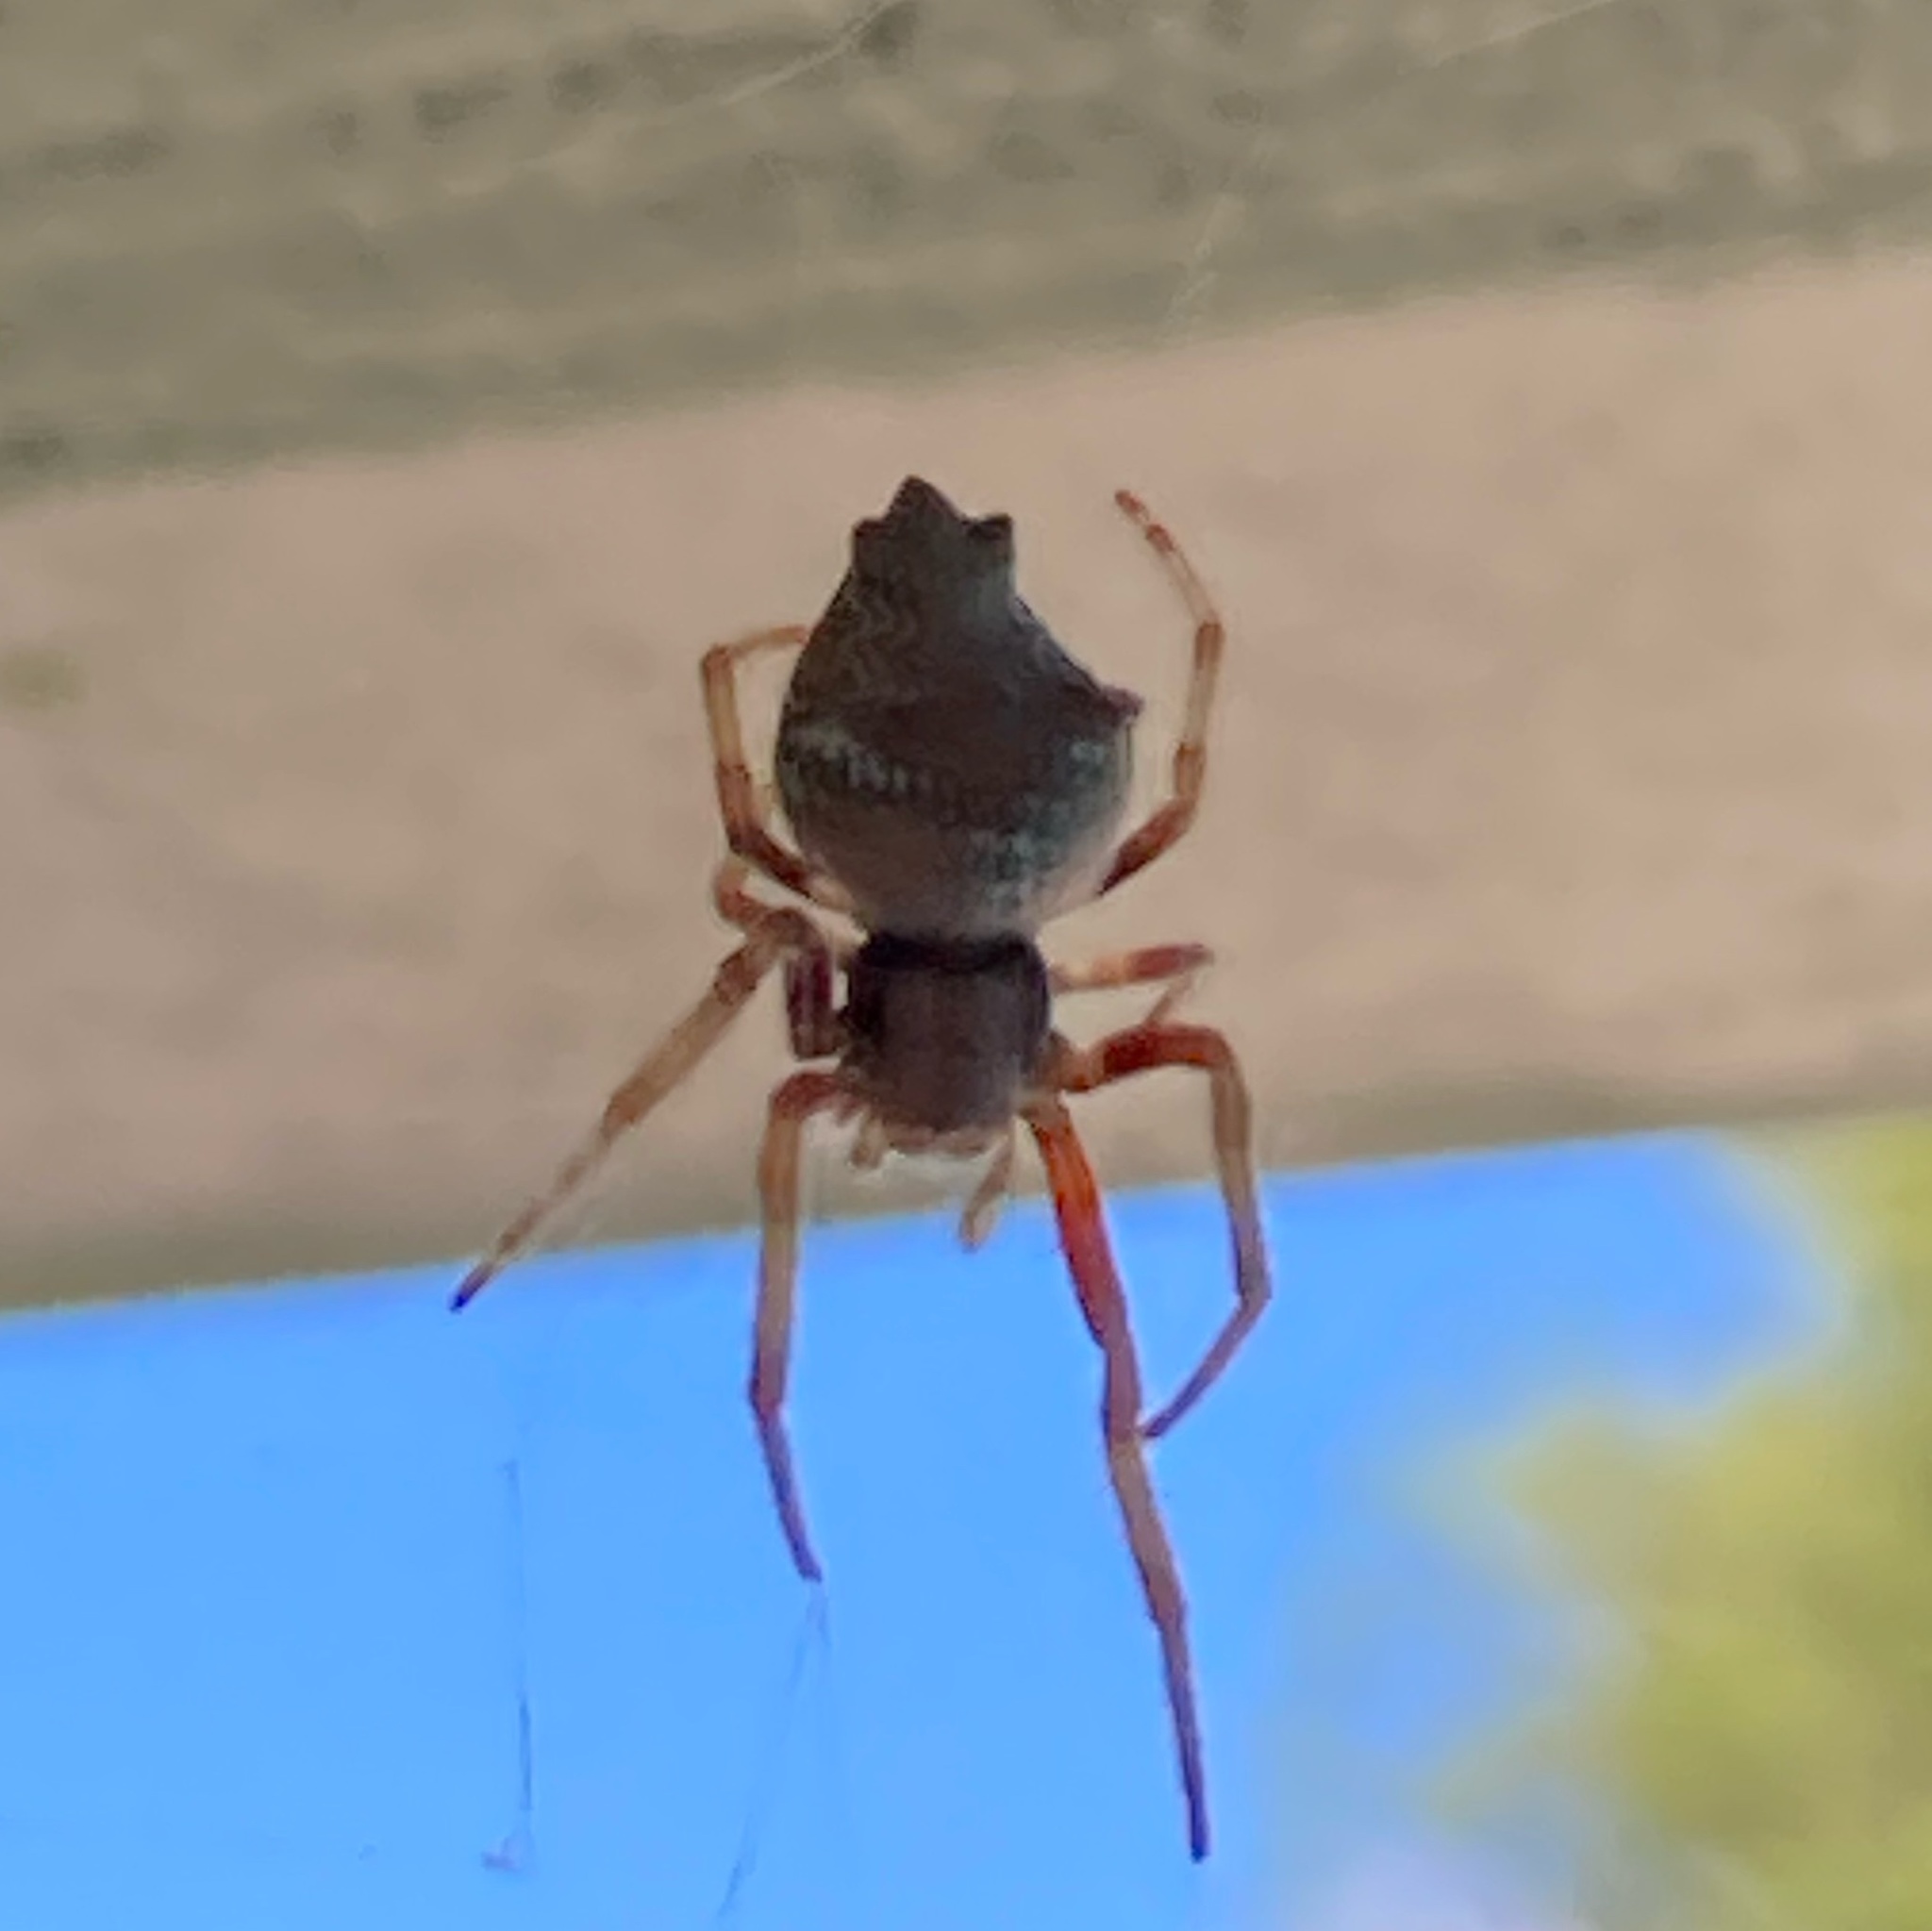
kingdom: Animalia
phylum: Arthropoda
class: Arachnida
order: Araneae
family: Araneidae
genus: Eriophora
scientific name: Eriophora pustulosa
